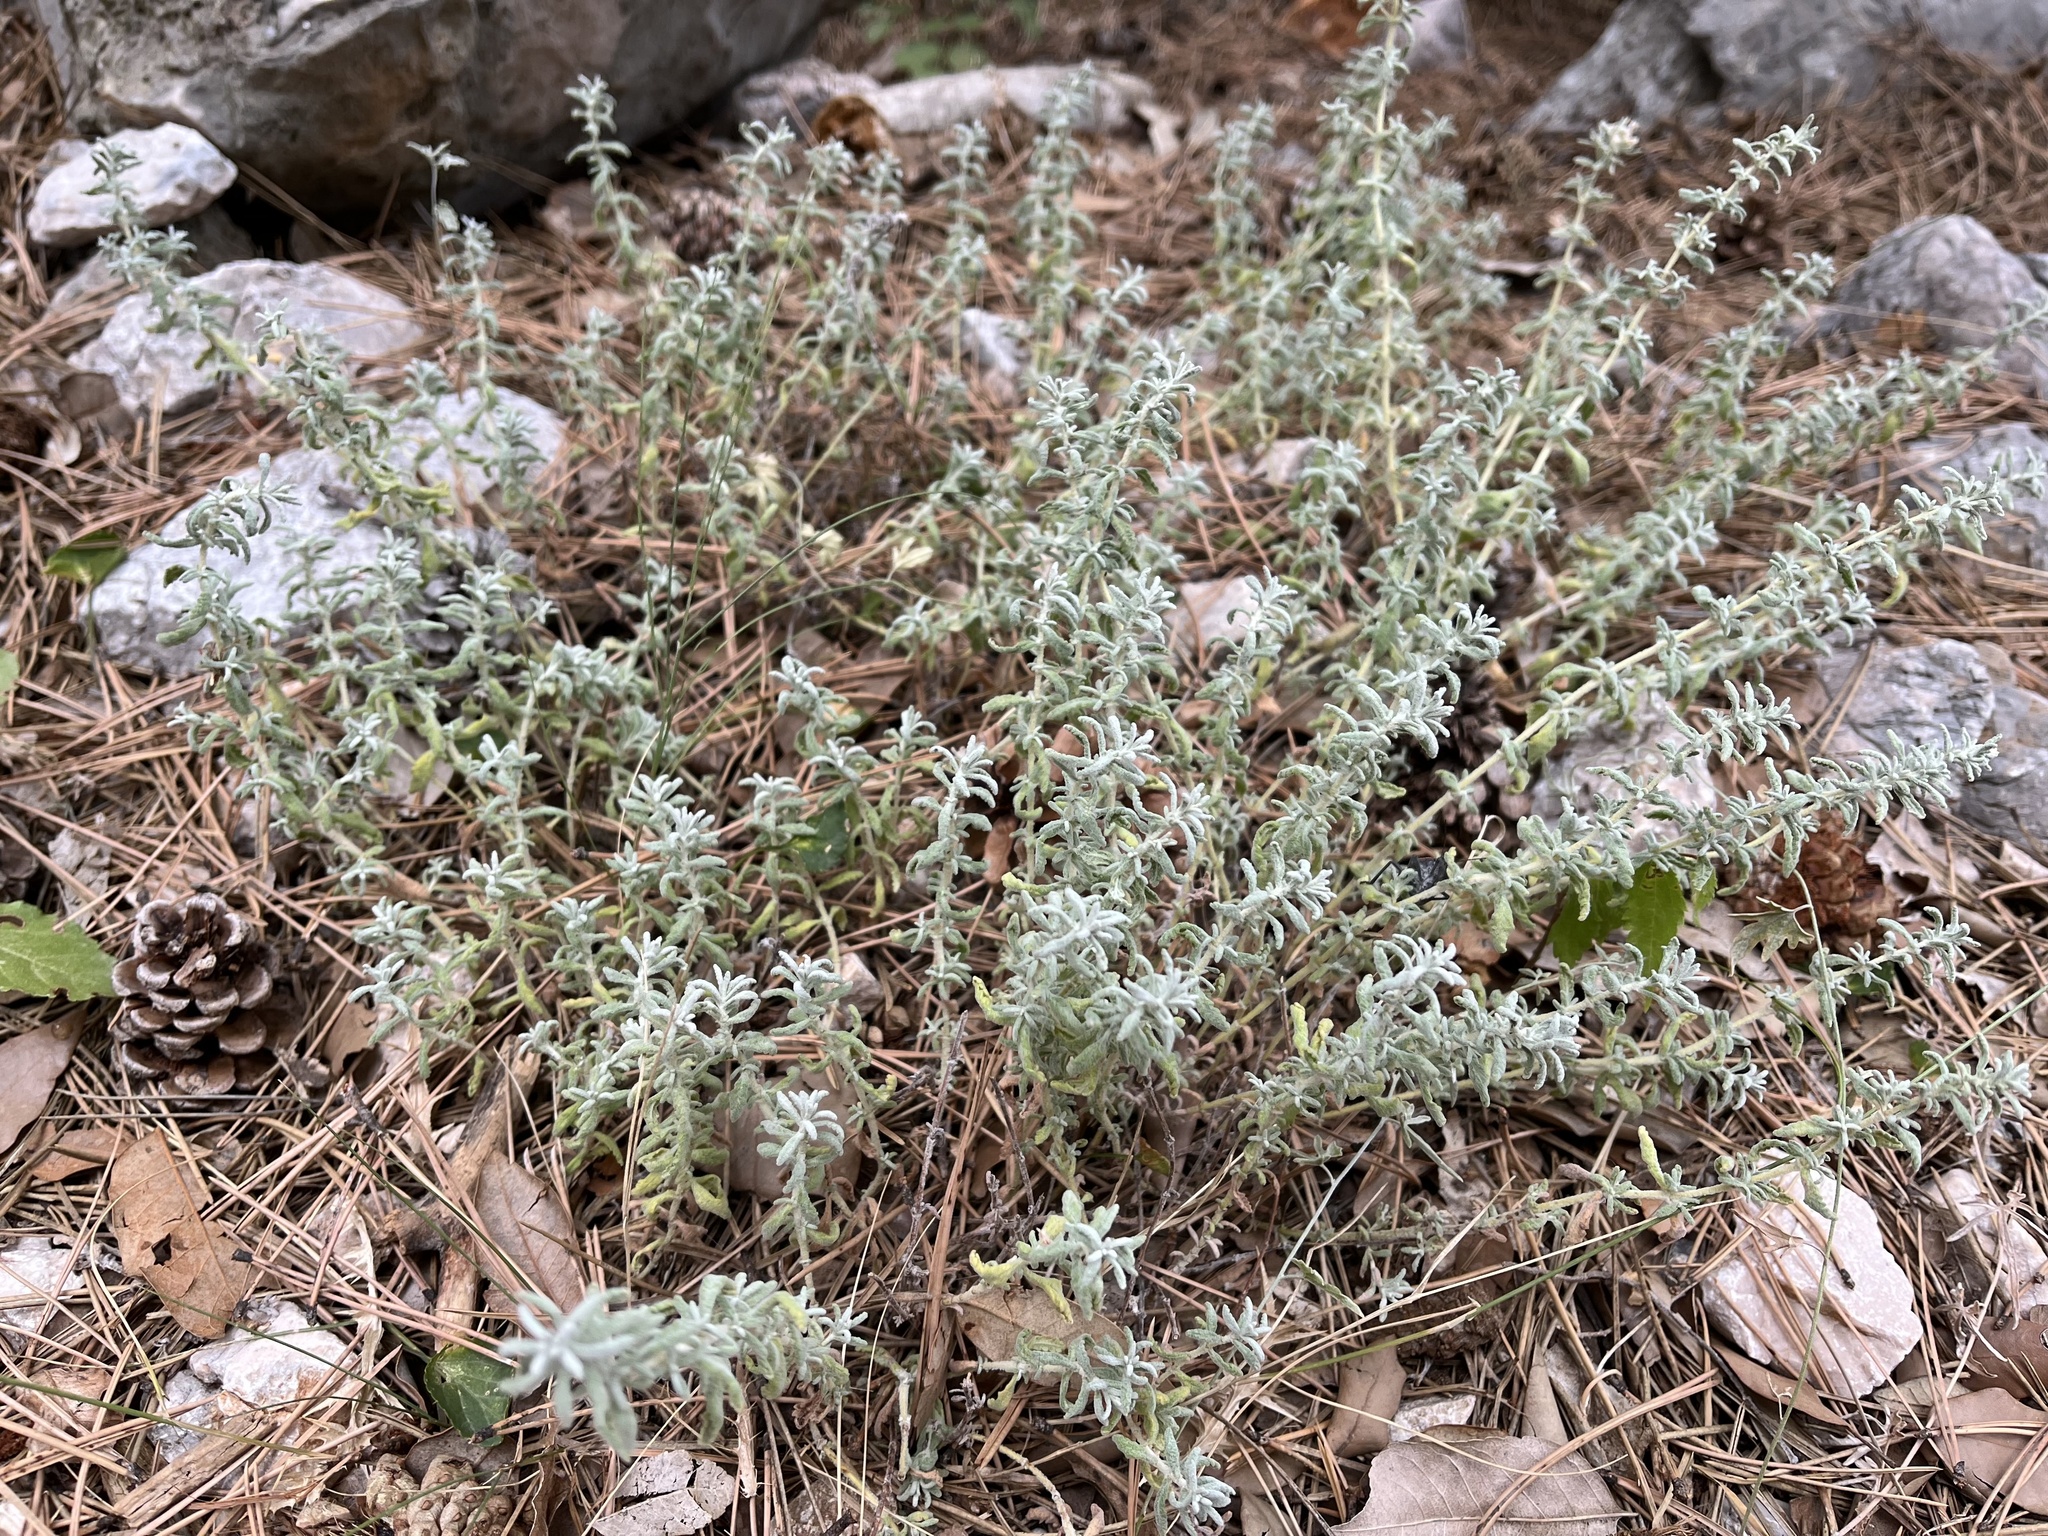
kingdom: Plantae
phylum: Tracheophyta
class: Magnoliopsida
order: Lamiales
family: Lamiaceae
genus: Teucrium
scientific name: Teucrium capitatum
